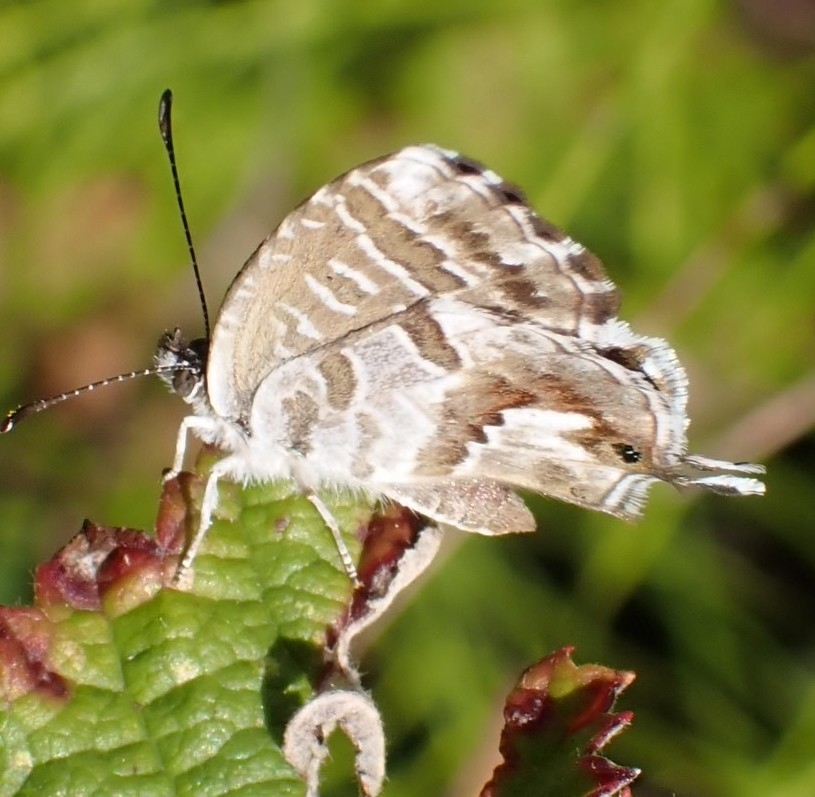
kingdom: Animalia
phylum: Arthropoda
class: Insecta
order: Lepidoptera
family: Lycaenidae
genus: Cacyreus
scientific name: Cacyreus marshalli
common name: Geranium bronze
